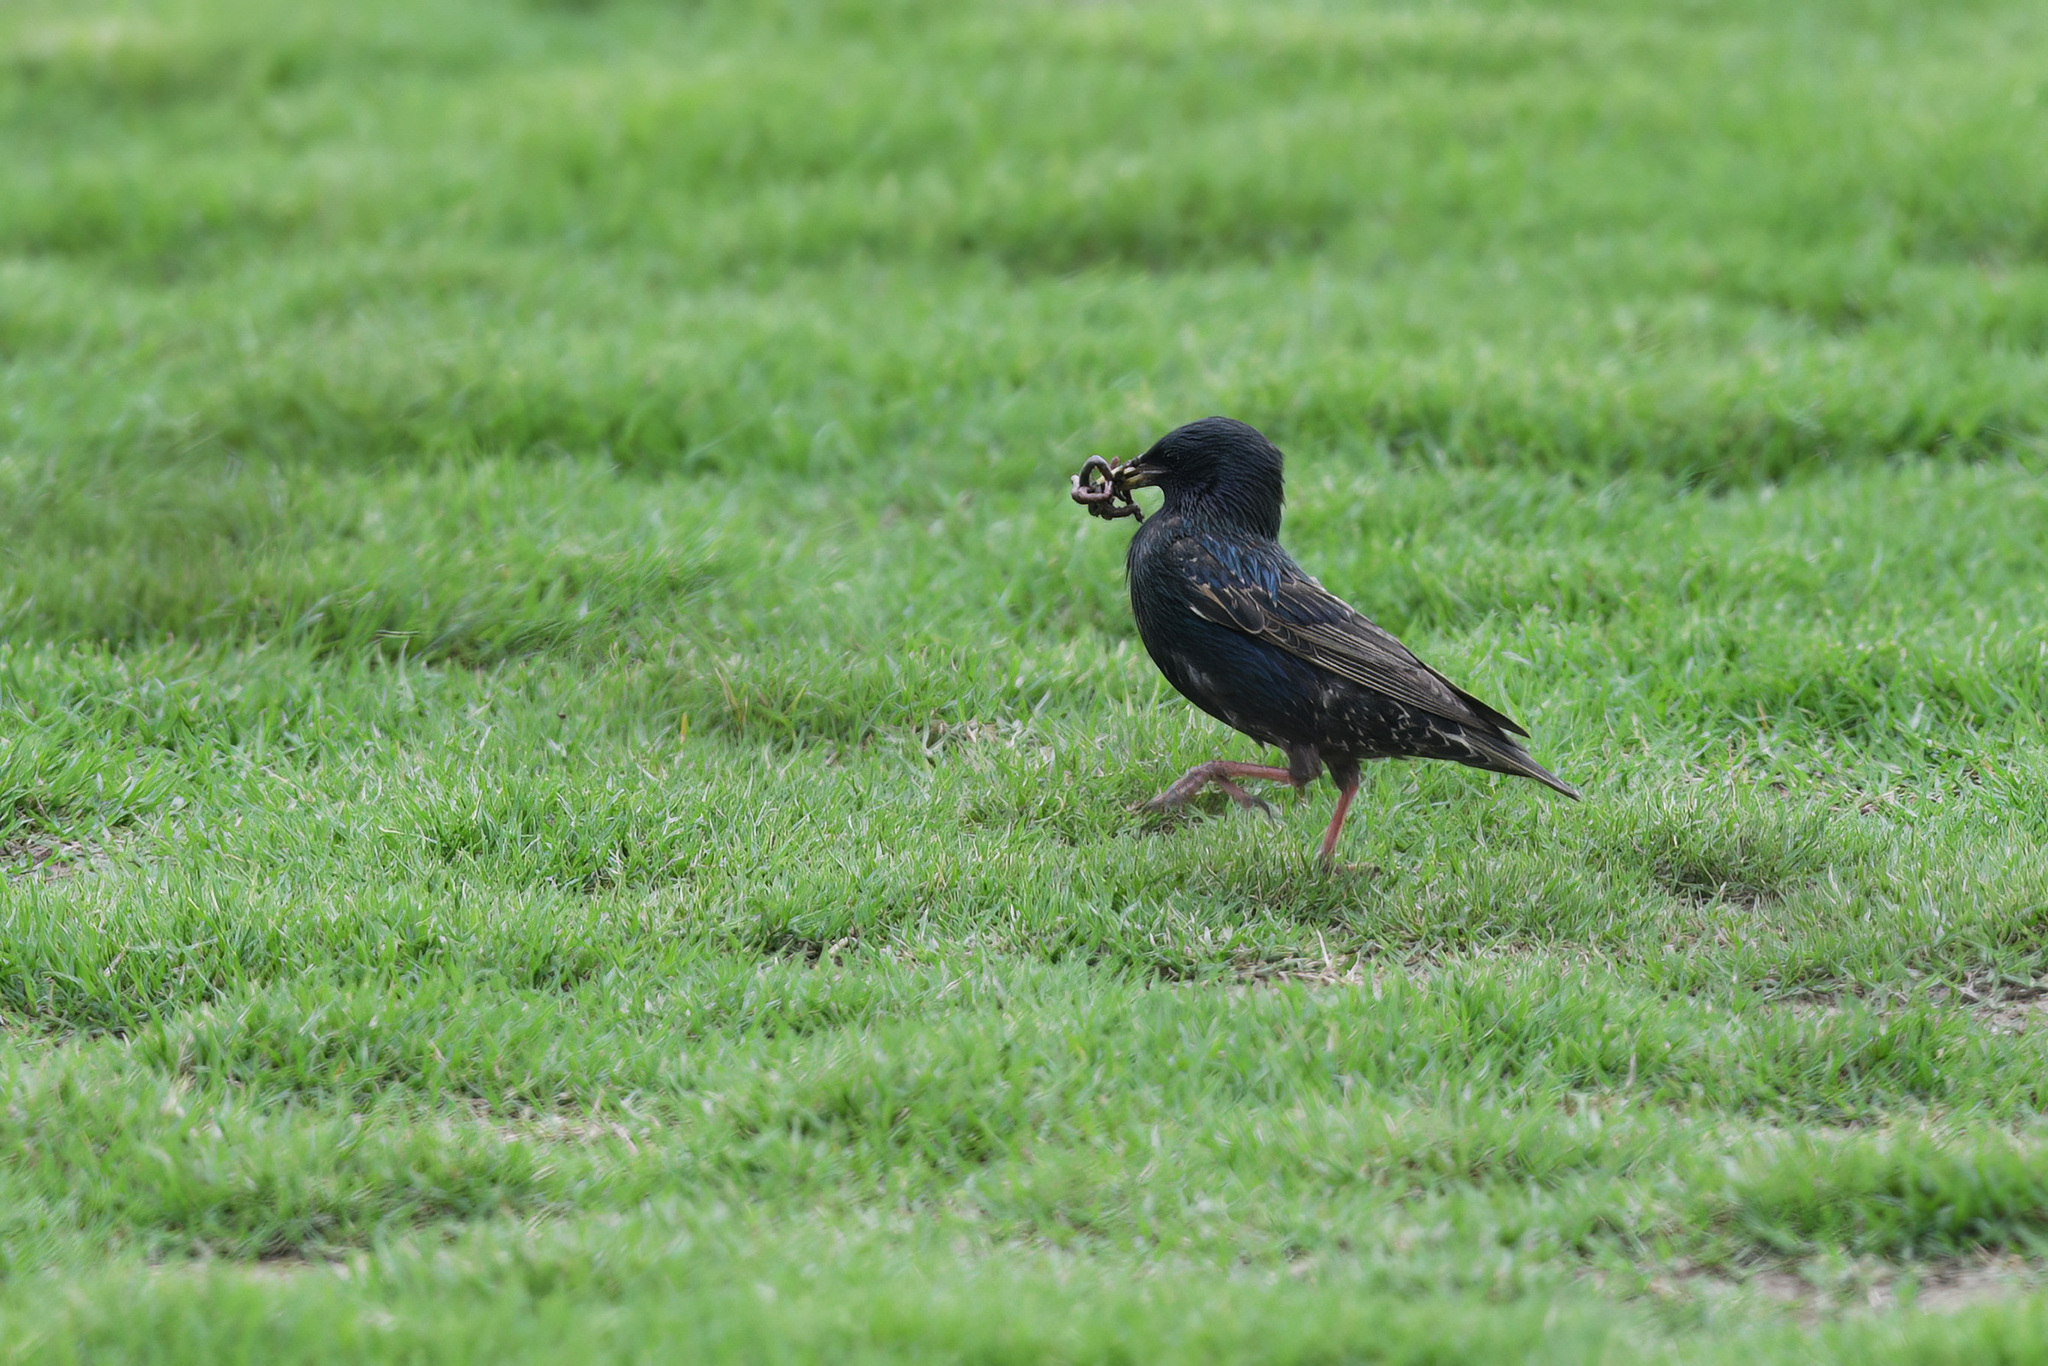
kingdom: Animalia
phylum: Chordata
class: Aves
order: Passeriformes
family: Sturnidae
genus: Sturnus
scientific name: Sturnus vulgaris
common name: Common starling
